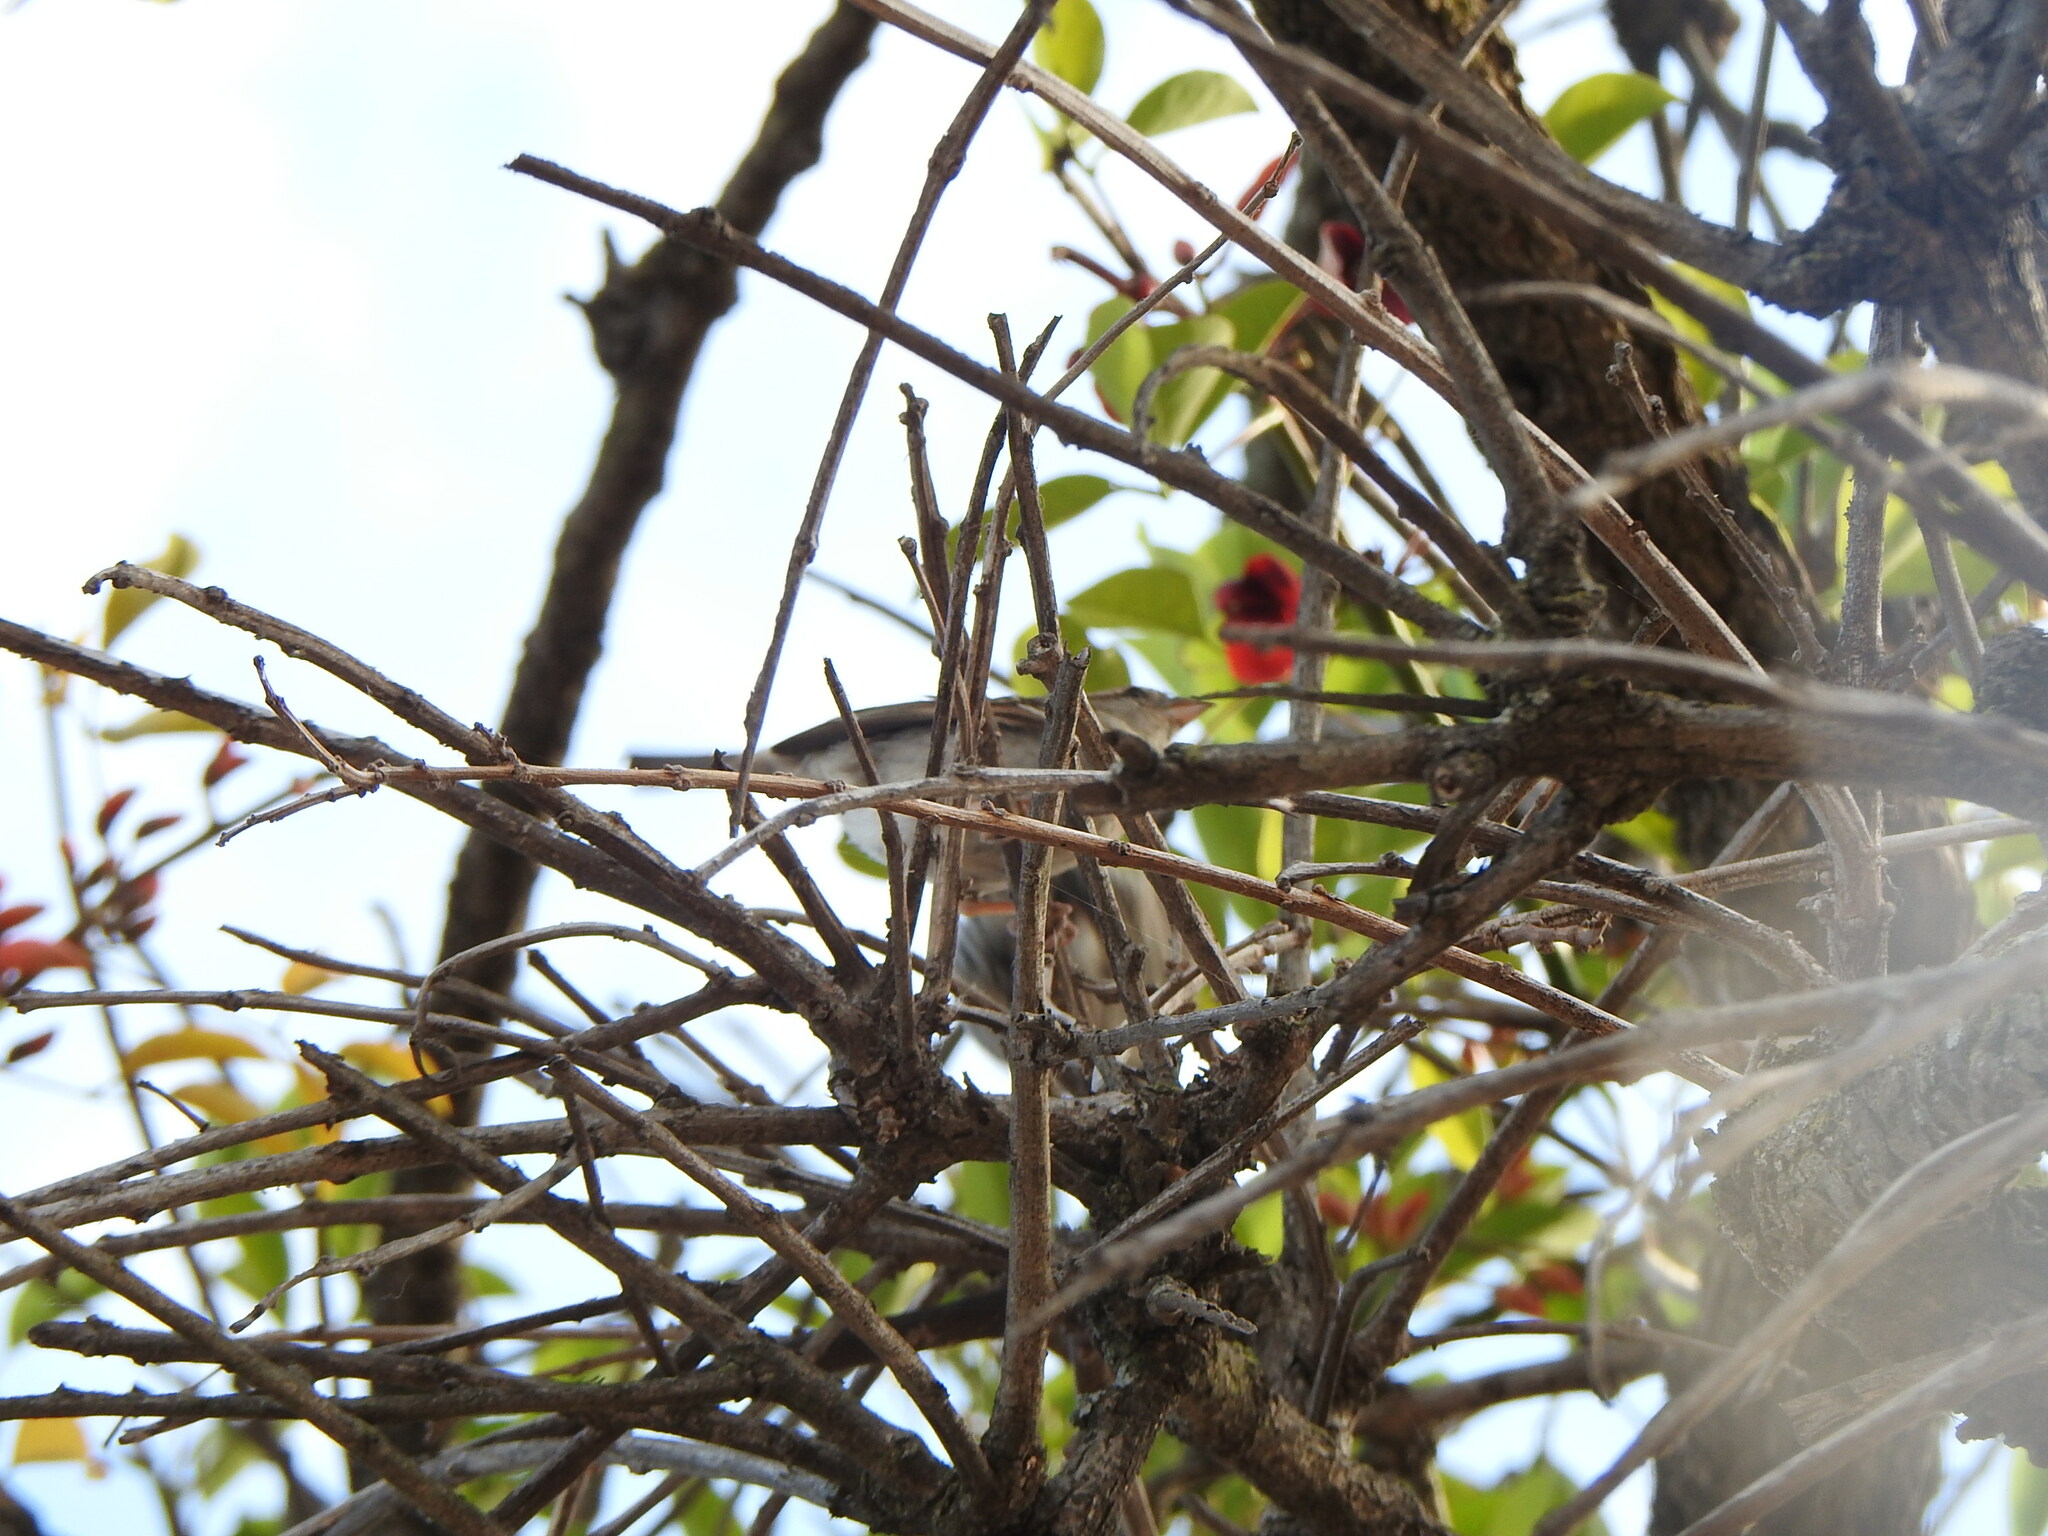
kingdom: Animalia
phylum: Chordata
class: Aves
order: Passeriformes
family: Passeridae
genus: Passer
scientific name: Passer domesticus
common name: House sparrow
